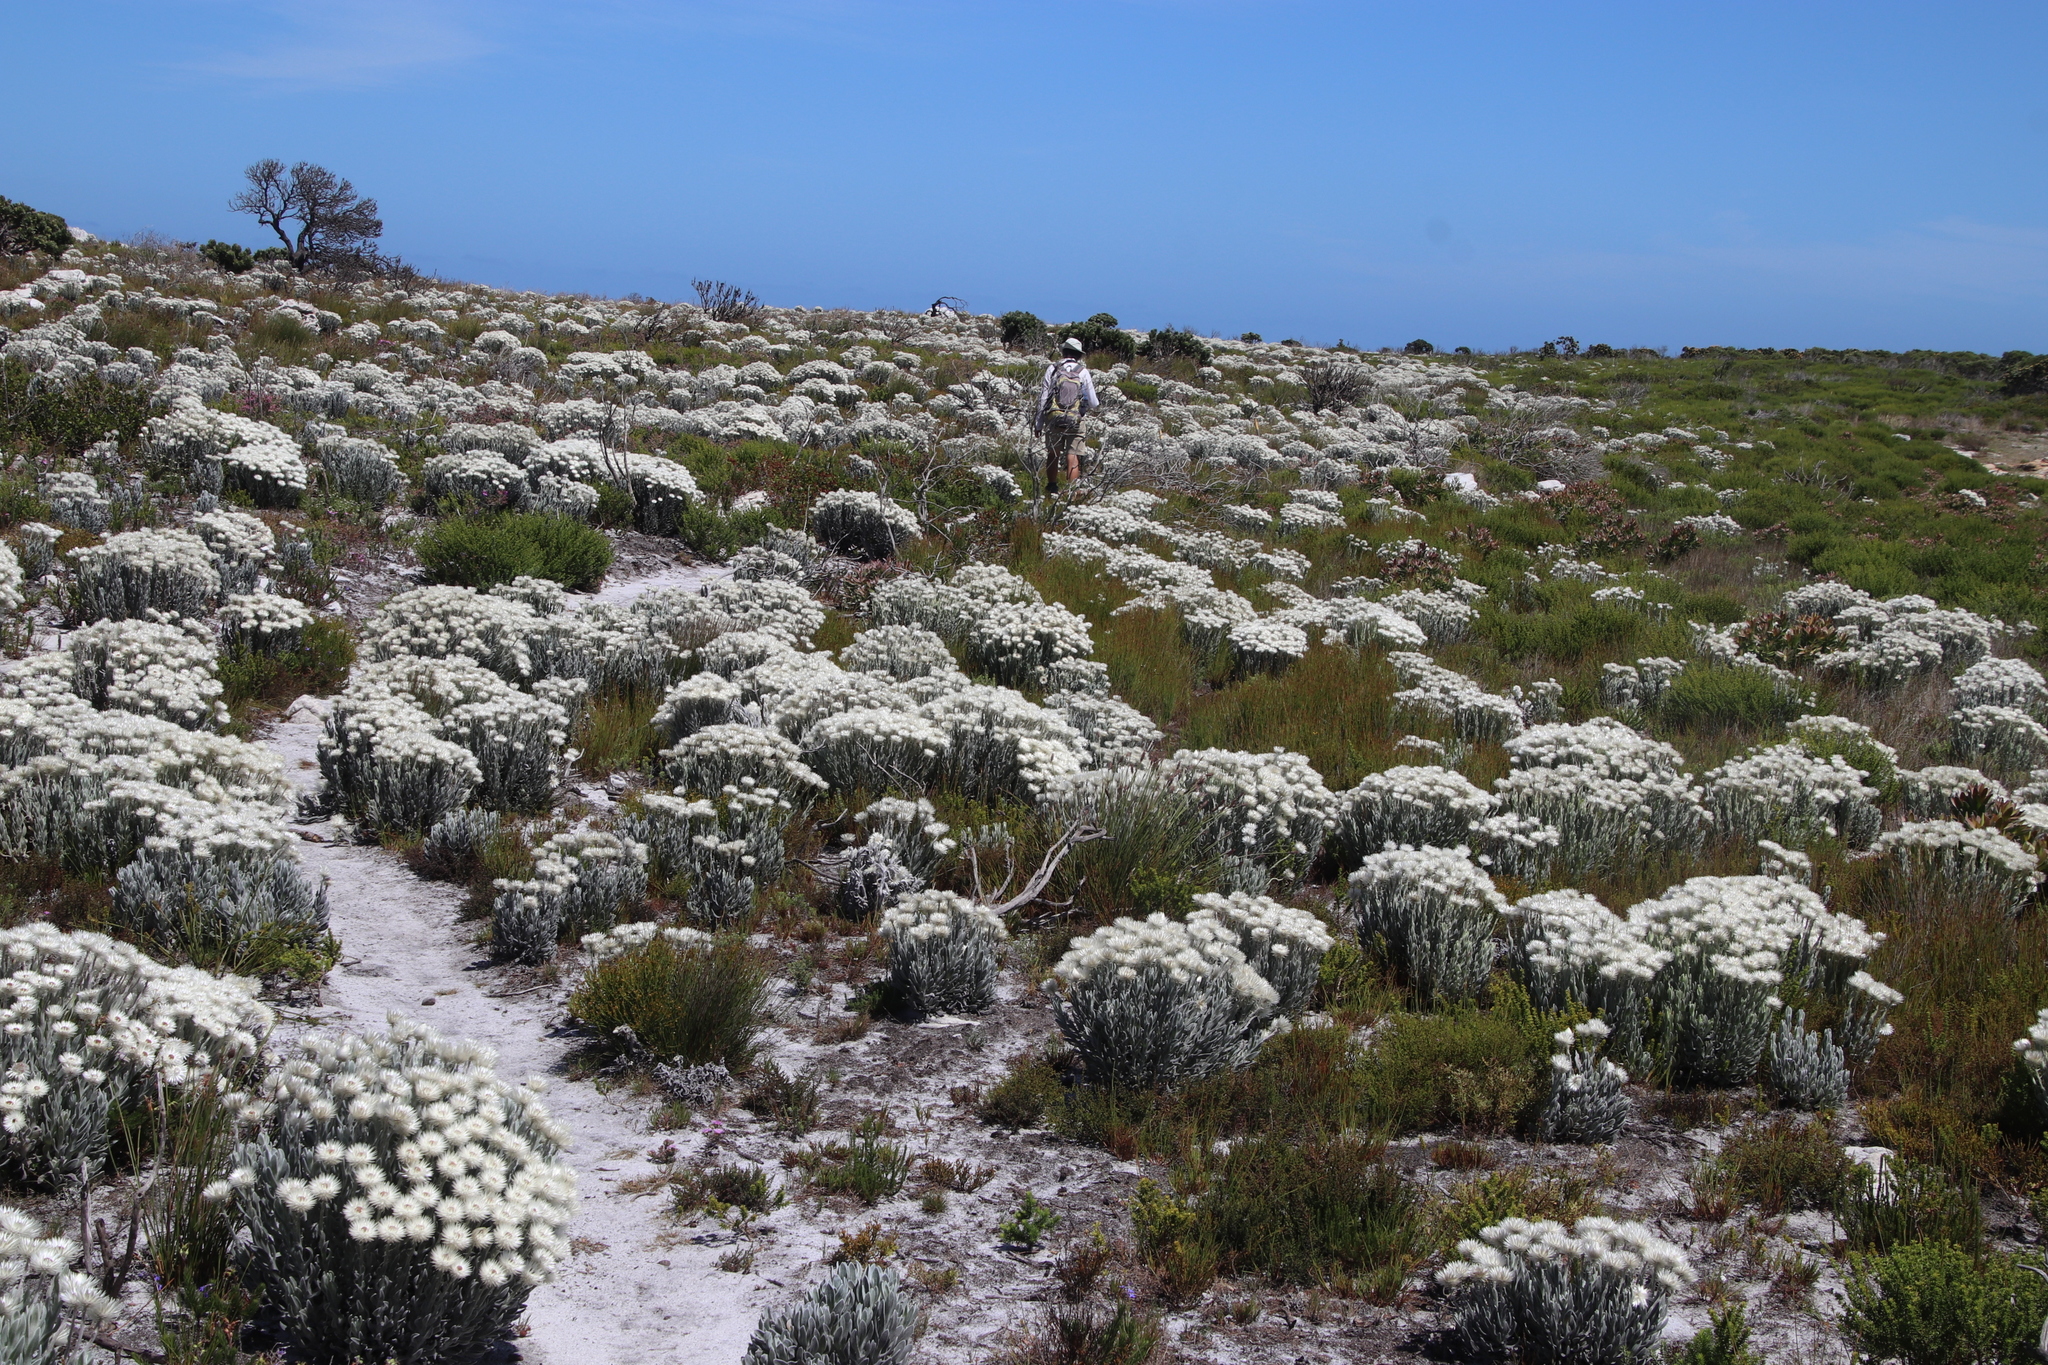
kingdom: Plantae
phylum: Tracheophyta
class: Magnoliopsida
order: Asterales
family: Asteraceae
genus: Syncarpha
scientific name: Syncarpha vestita
